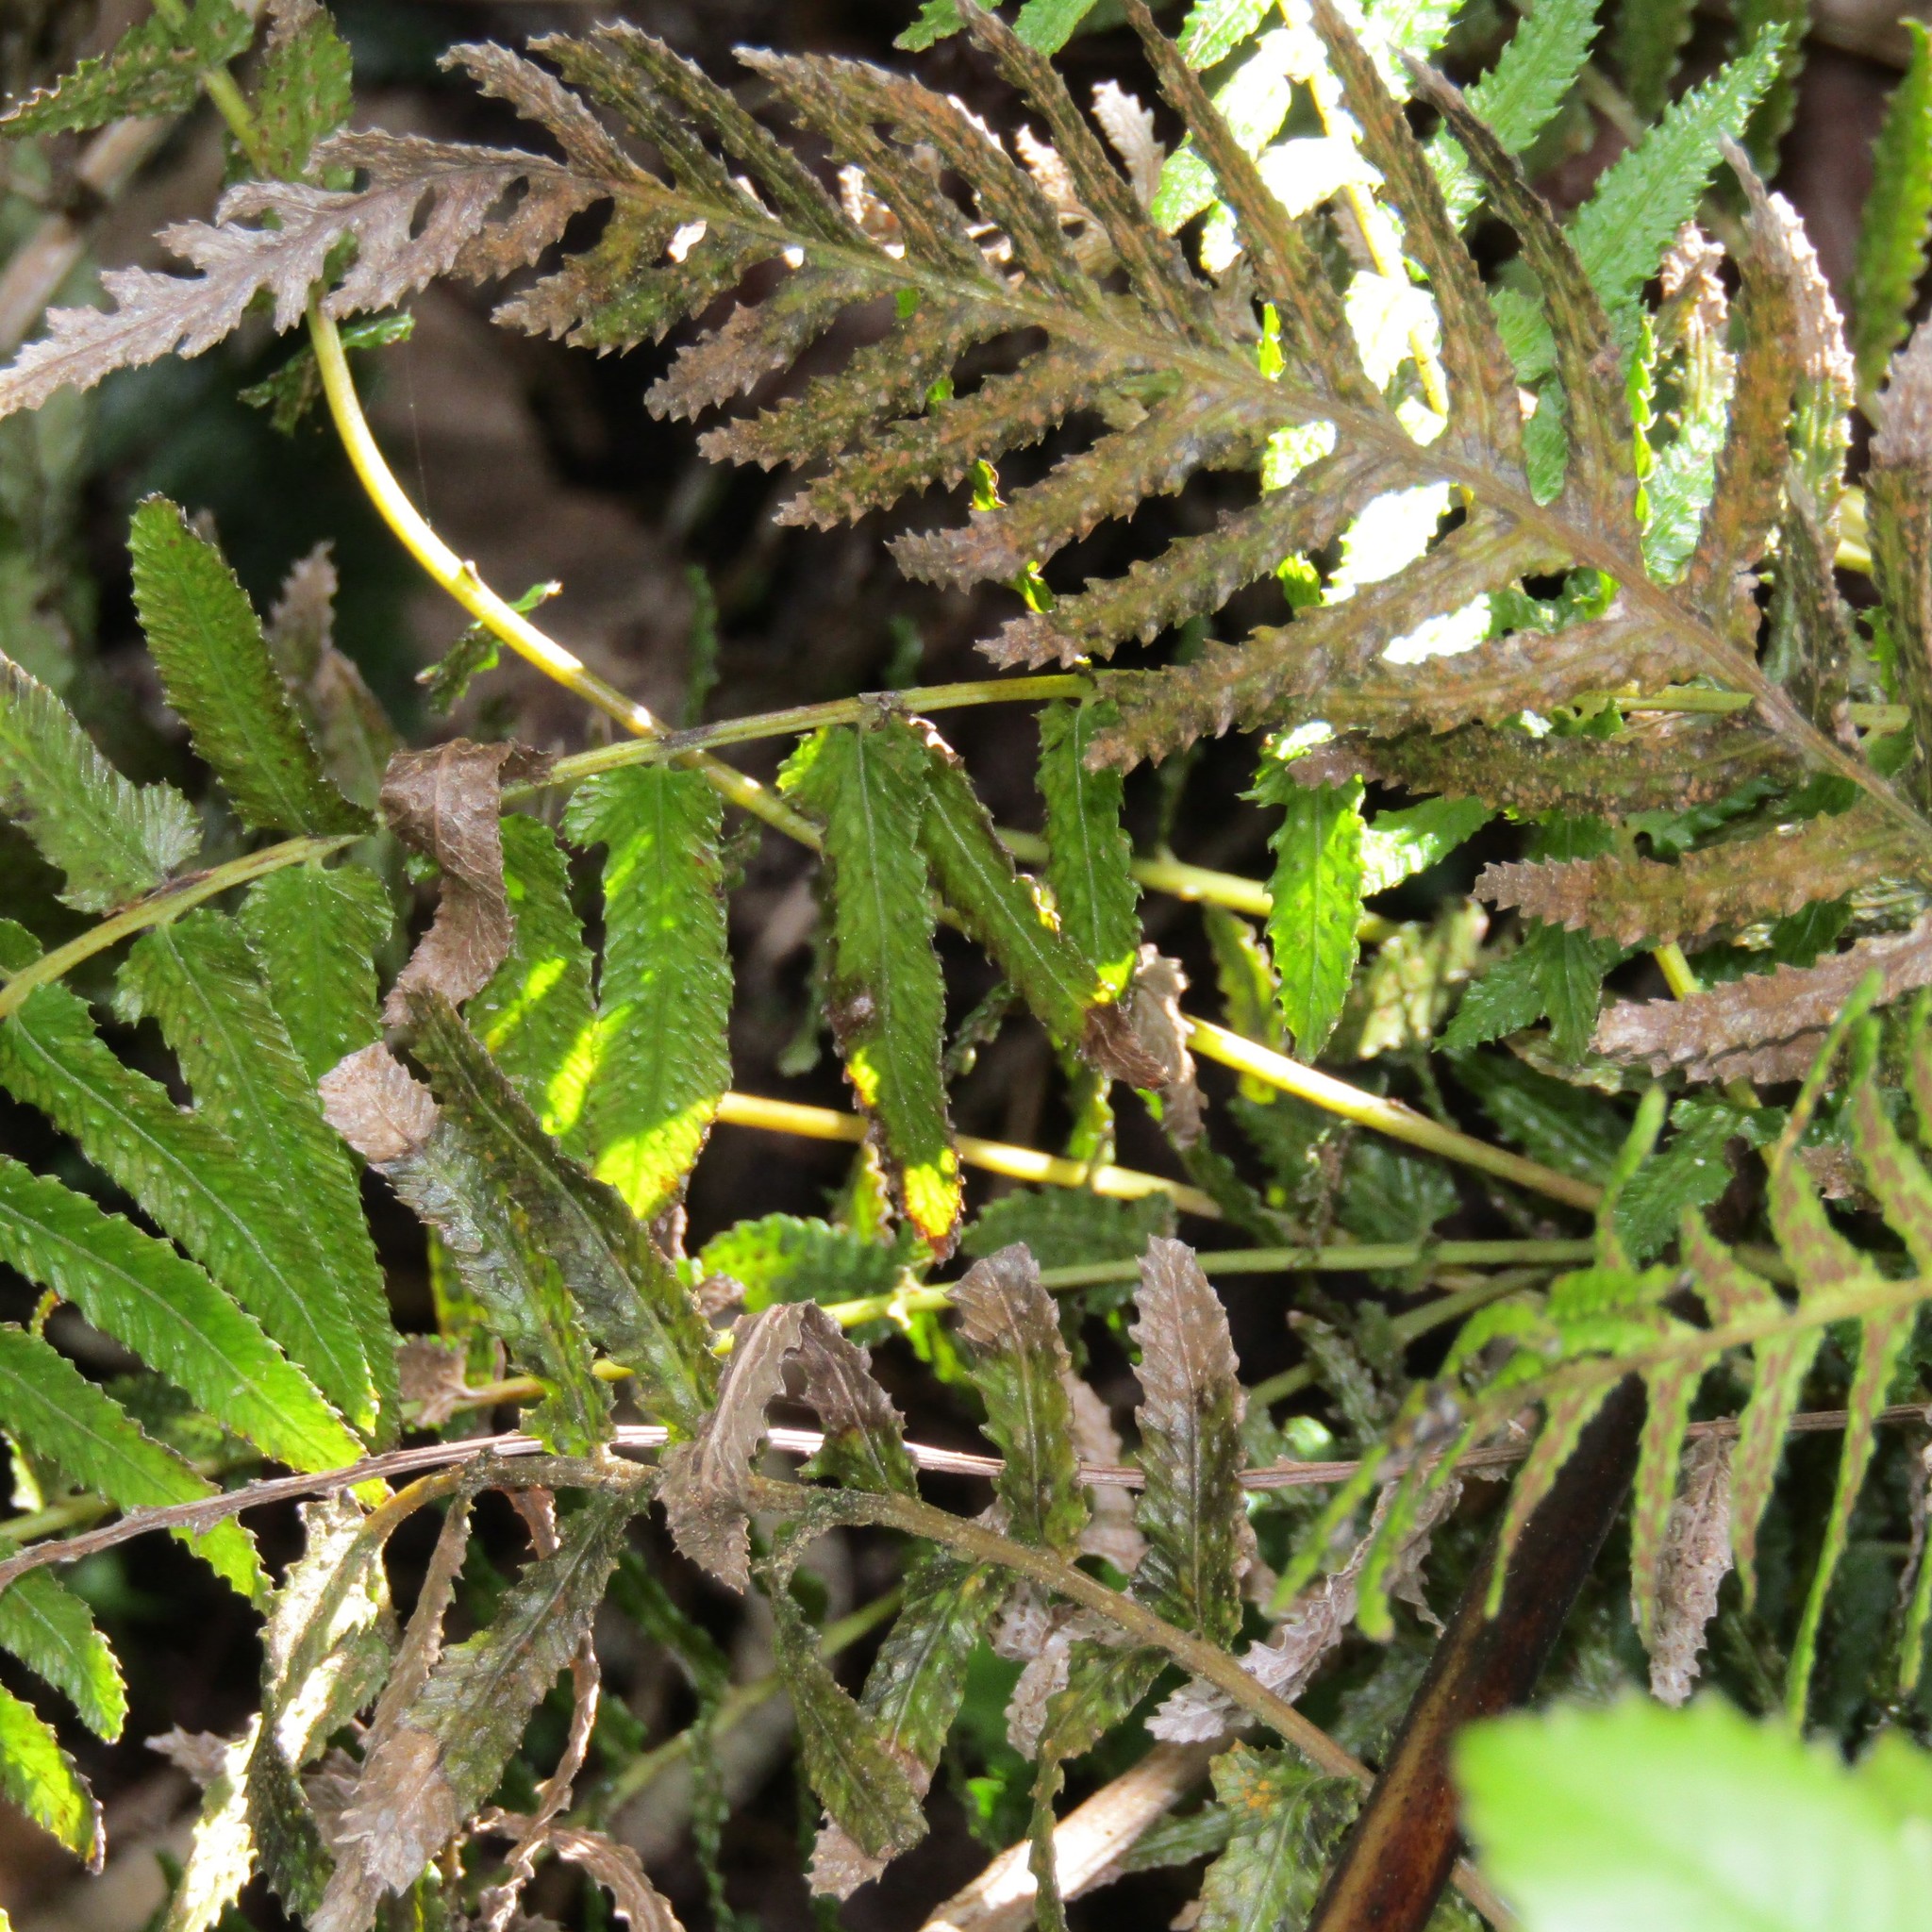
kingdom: Plantae
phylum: Tracheophyta
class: Polypodiopsida
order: Polypodiales
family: Blechnaceae
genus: Doodia
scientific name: Doodia australis
